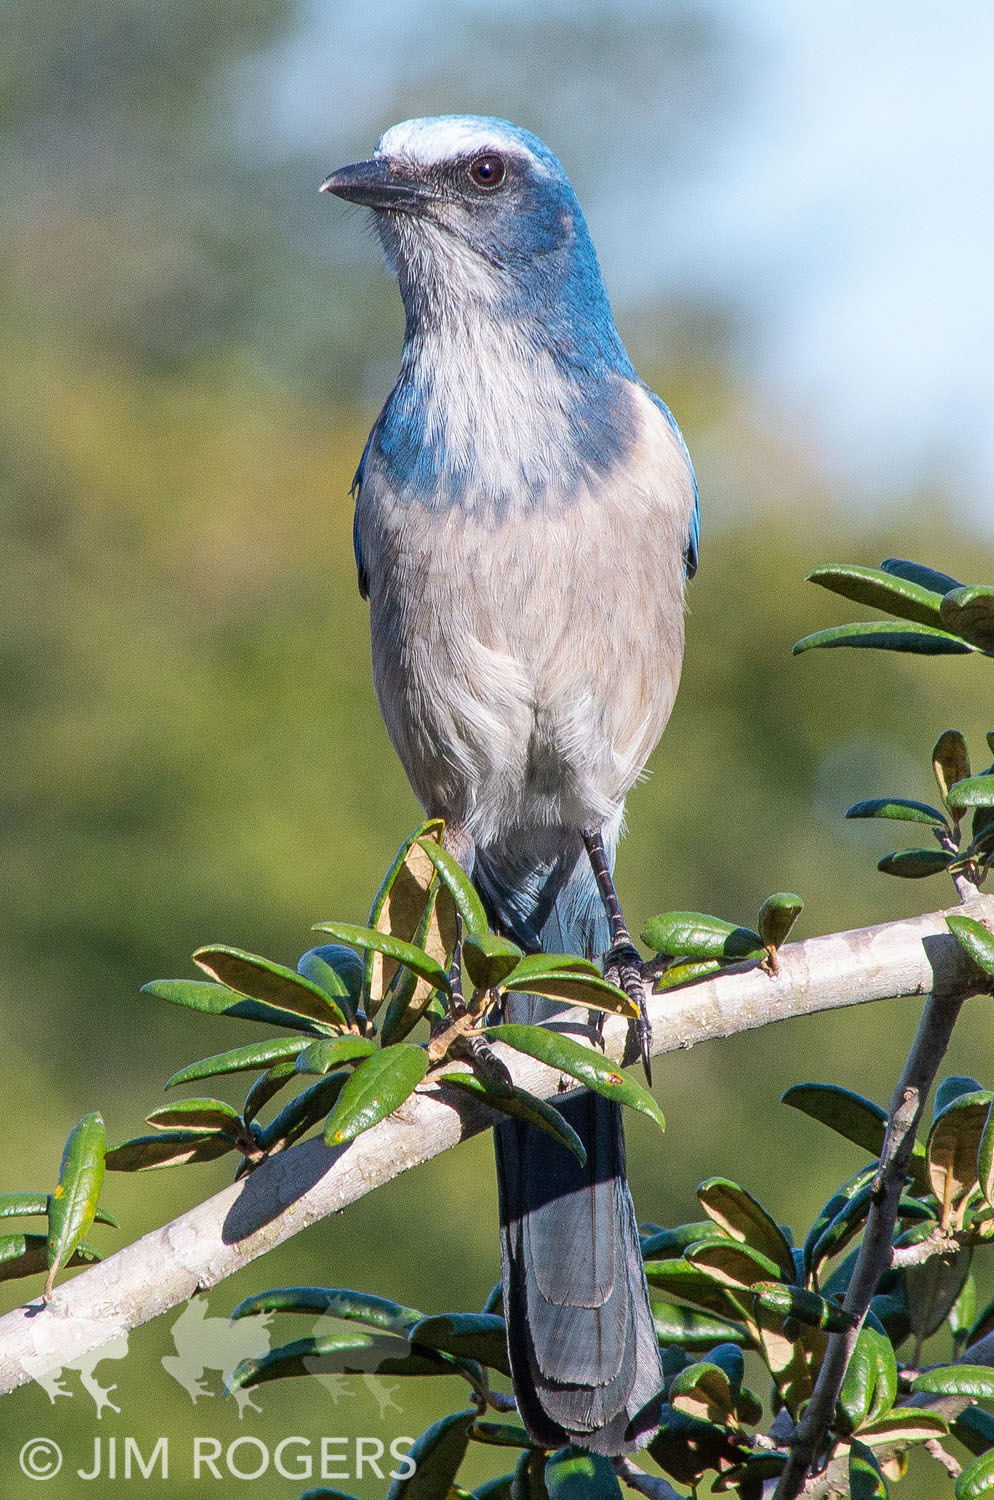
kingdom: Animalia
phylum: Chordata
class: Aves
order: Passeriformes
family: Corvidae
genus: Aphelocoma
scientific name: Aphelocoma coerulescens
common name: Florida scrub jay
